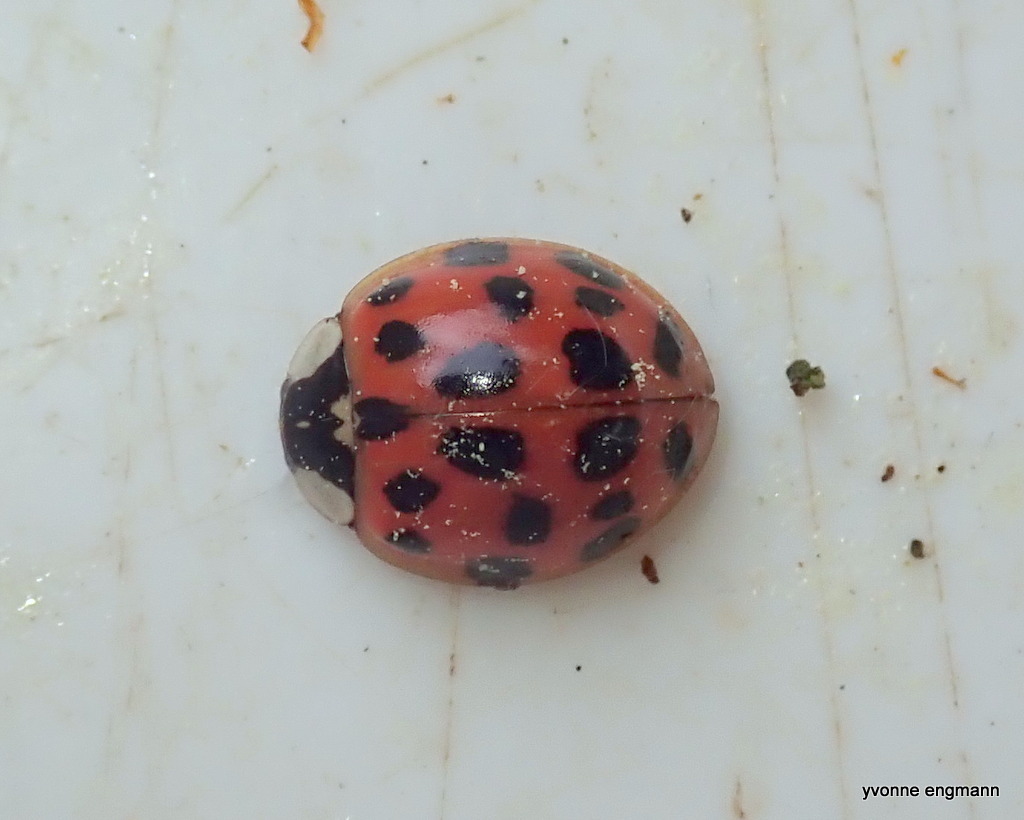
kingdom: Animalia
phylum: Arthropoda
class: Insecta
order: Coleoptera
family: Coccinellidae
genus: Harmonia
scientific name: Harmonia axyridis
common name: Harlequin ladybird
